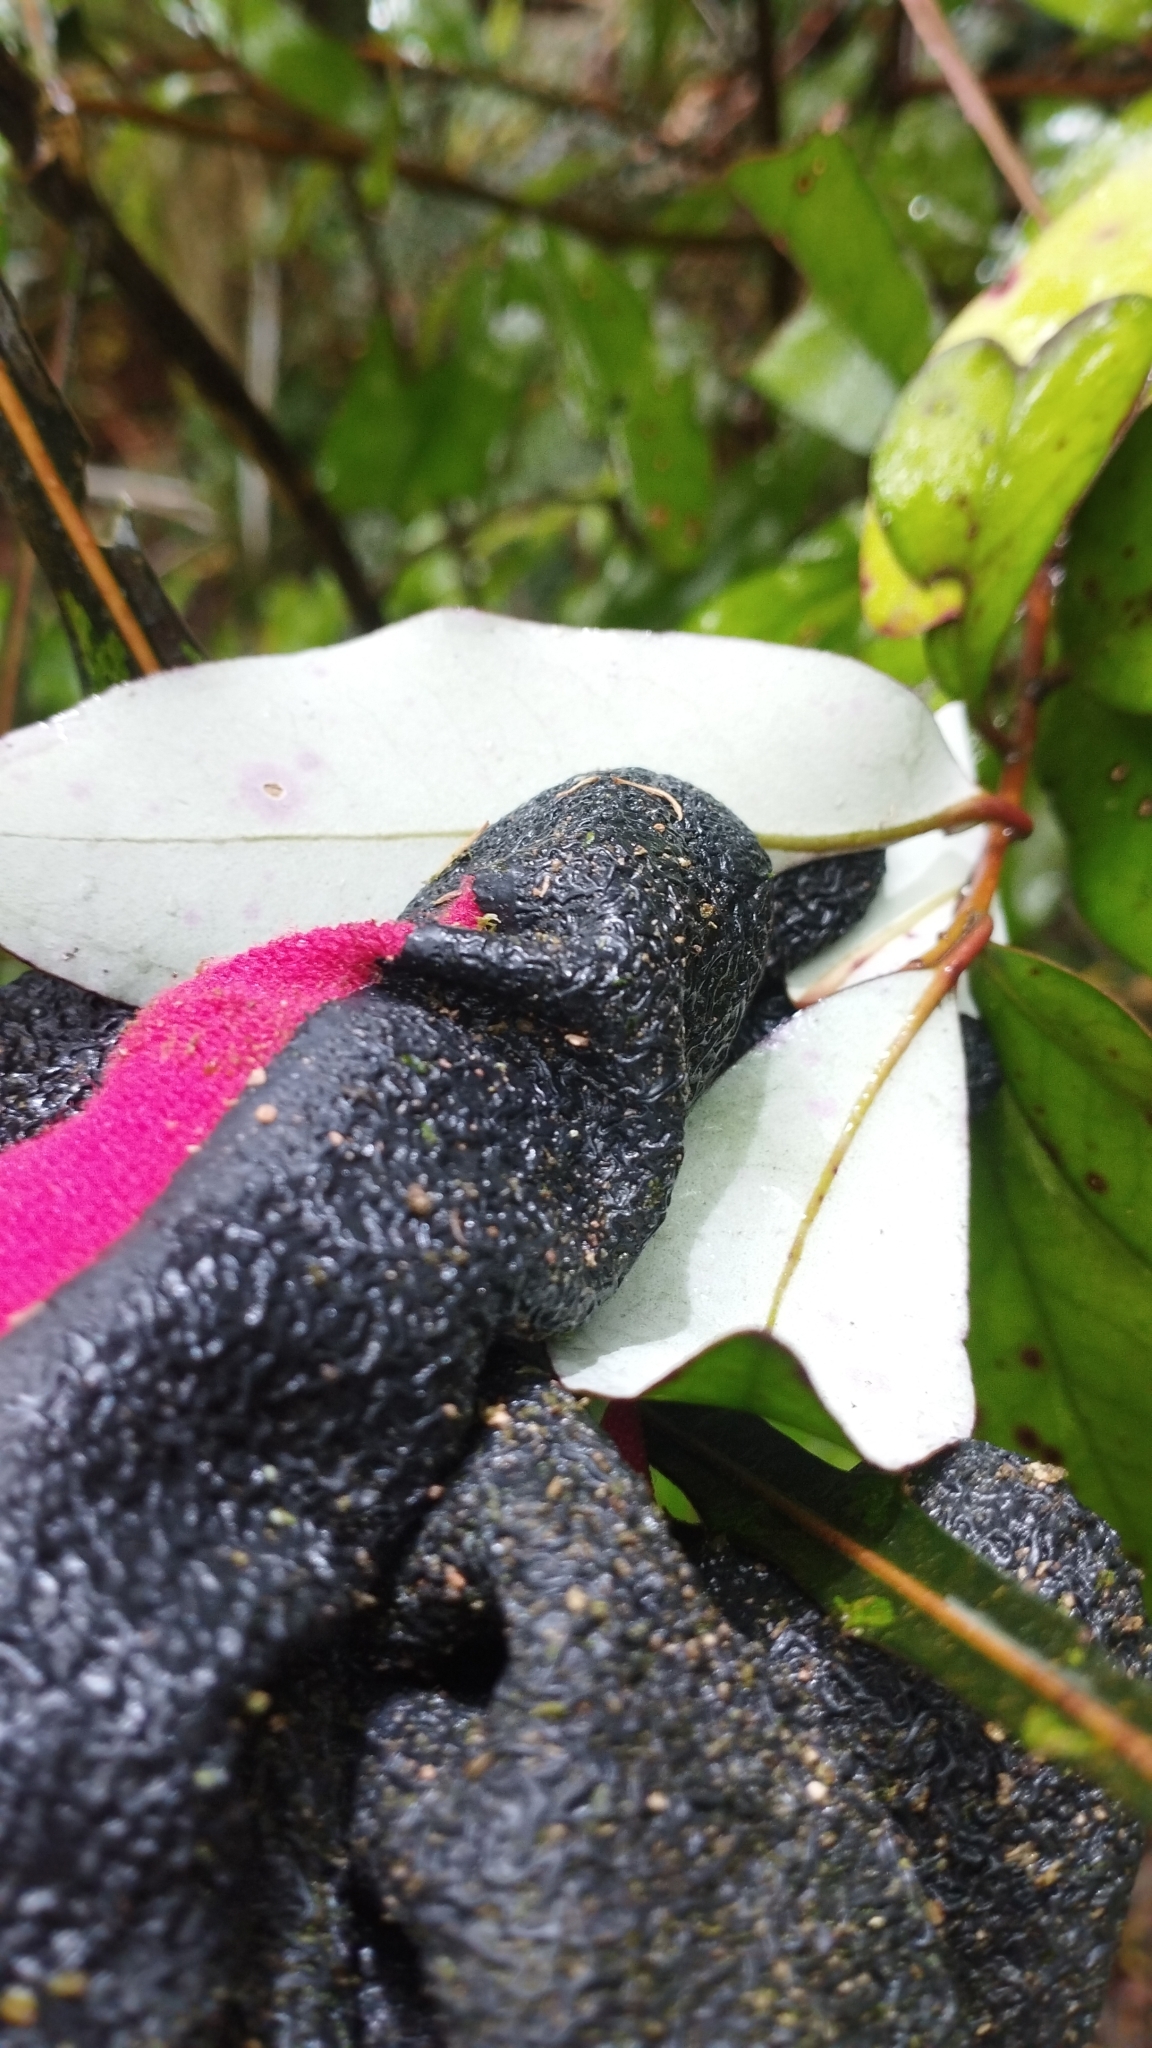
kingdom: Plantae
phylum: Tracheophyta
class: Magnoliopsida
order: Canellales
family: Winteraceae
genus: Pseudowintera
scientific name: Pseudowintera colorata
